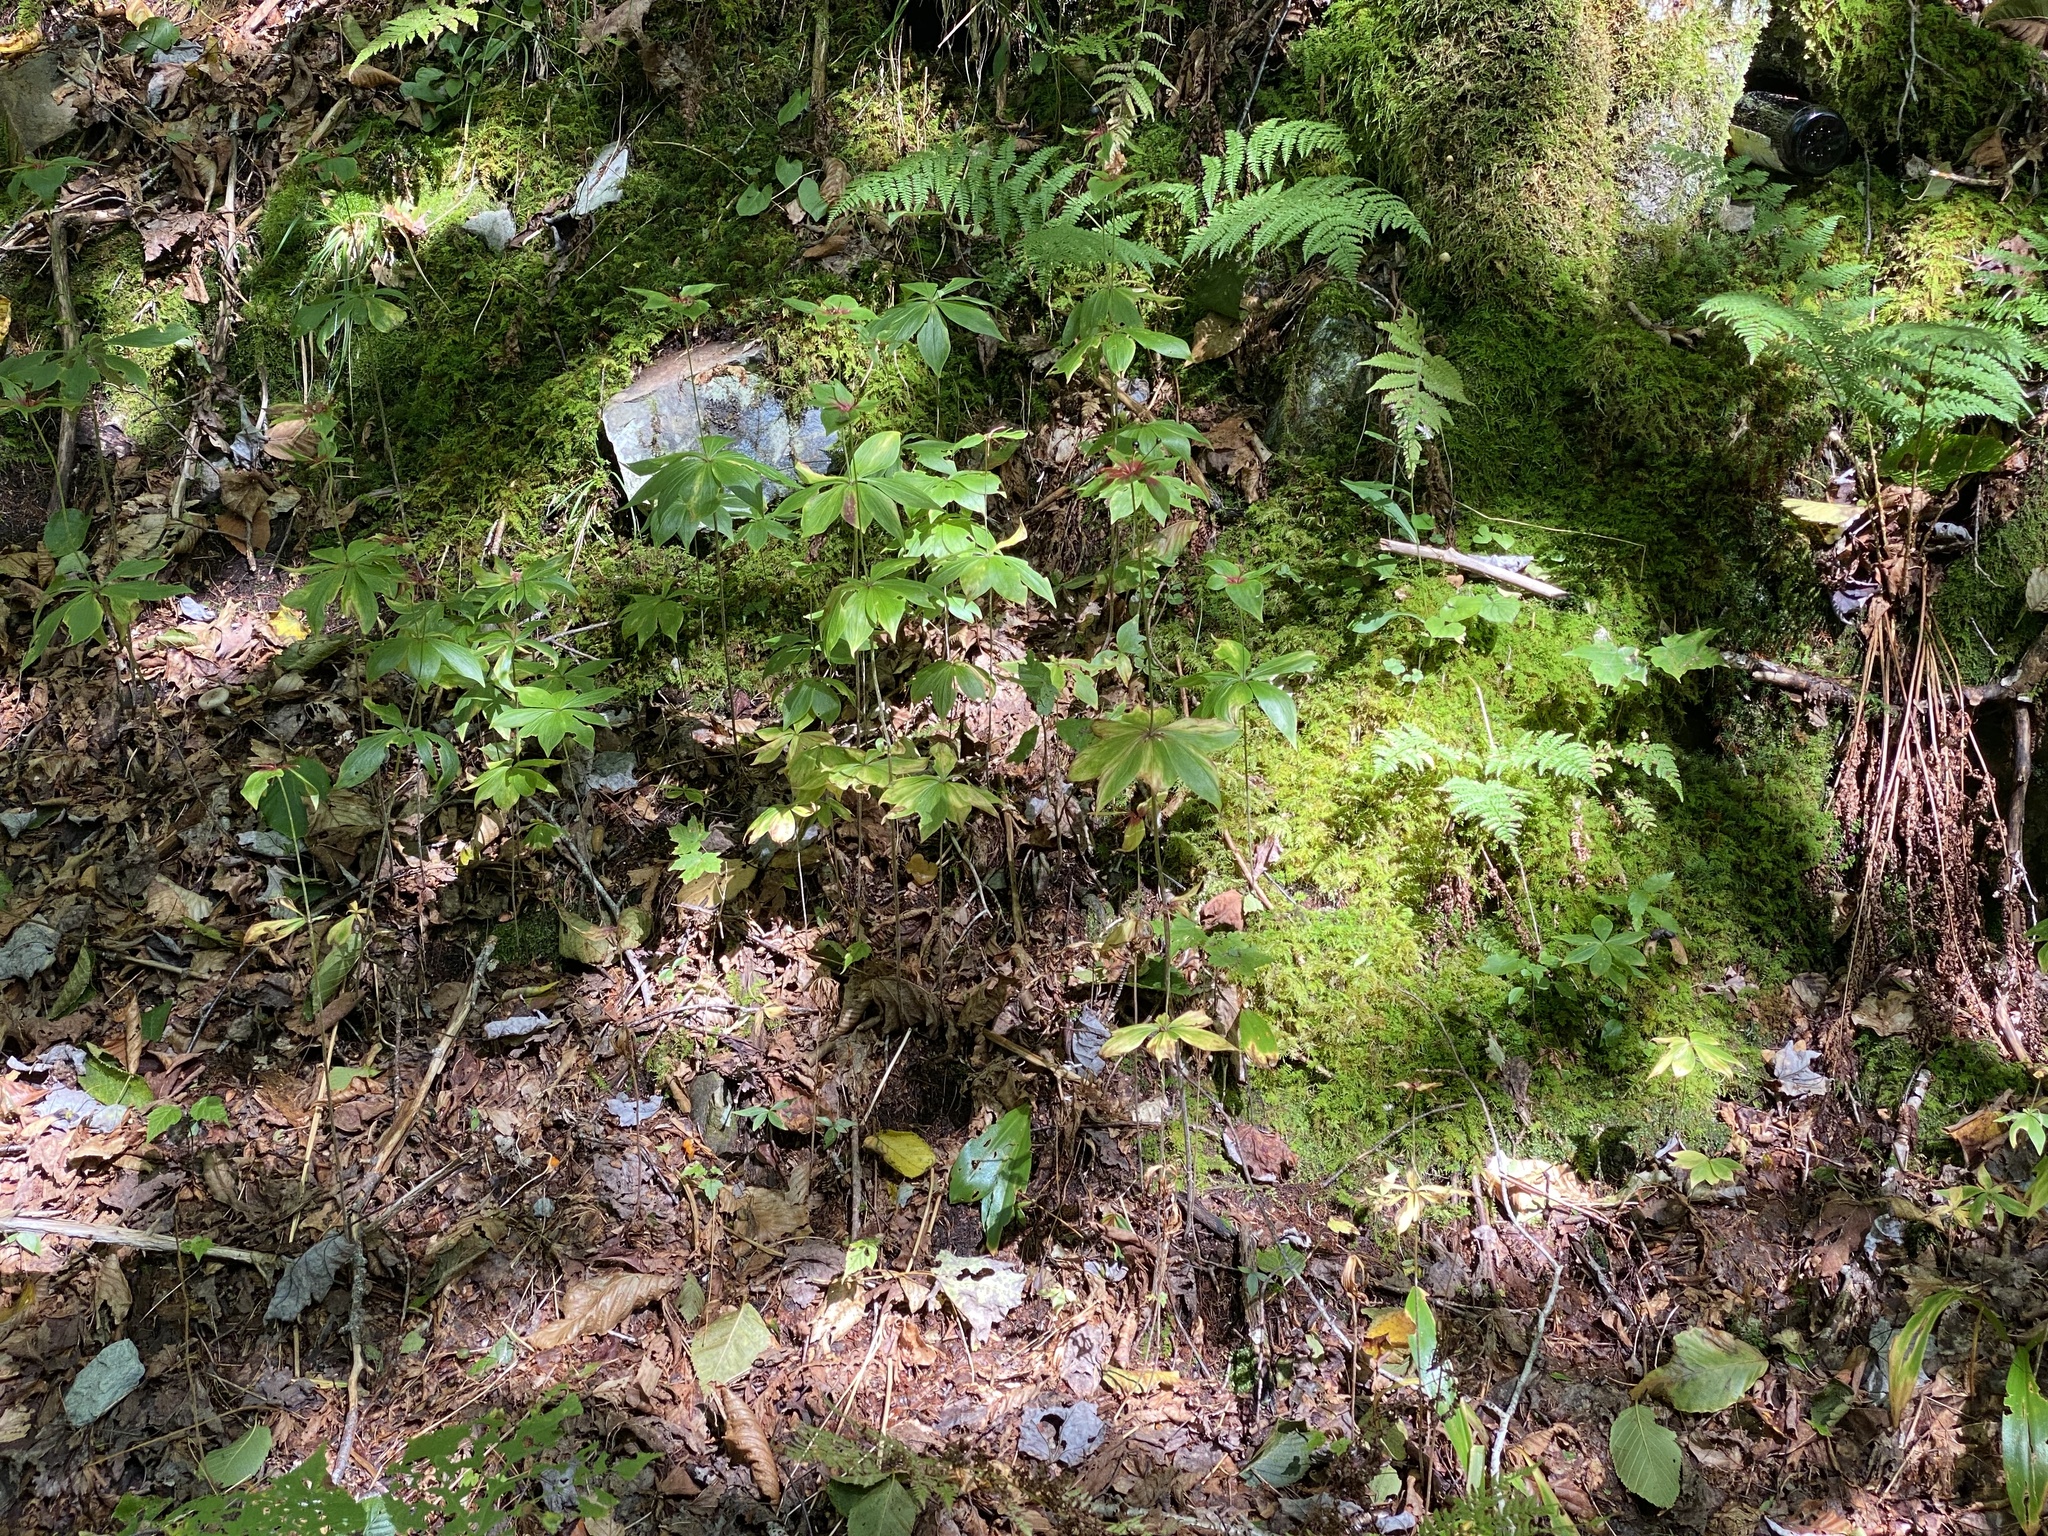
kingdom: Plantae
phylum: Tracheophyta
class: Liliopsida
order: Liliales
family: Liliaceae
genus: Medeola
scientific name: Medeola virginiana
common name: Indian cucumber-root
